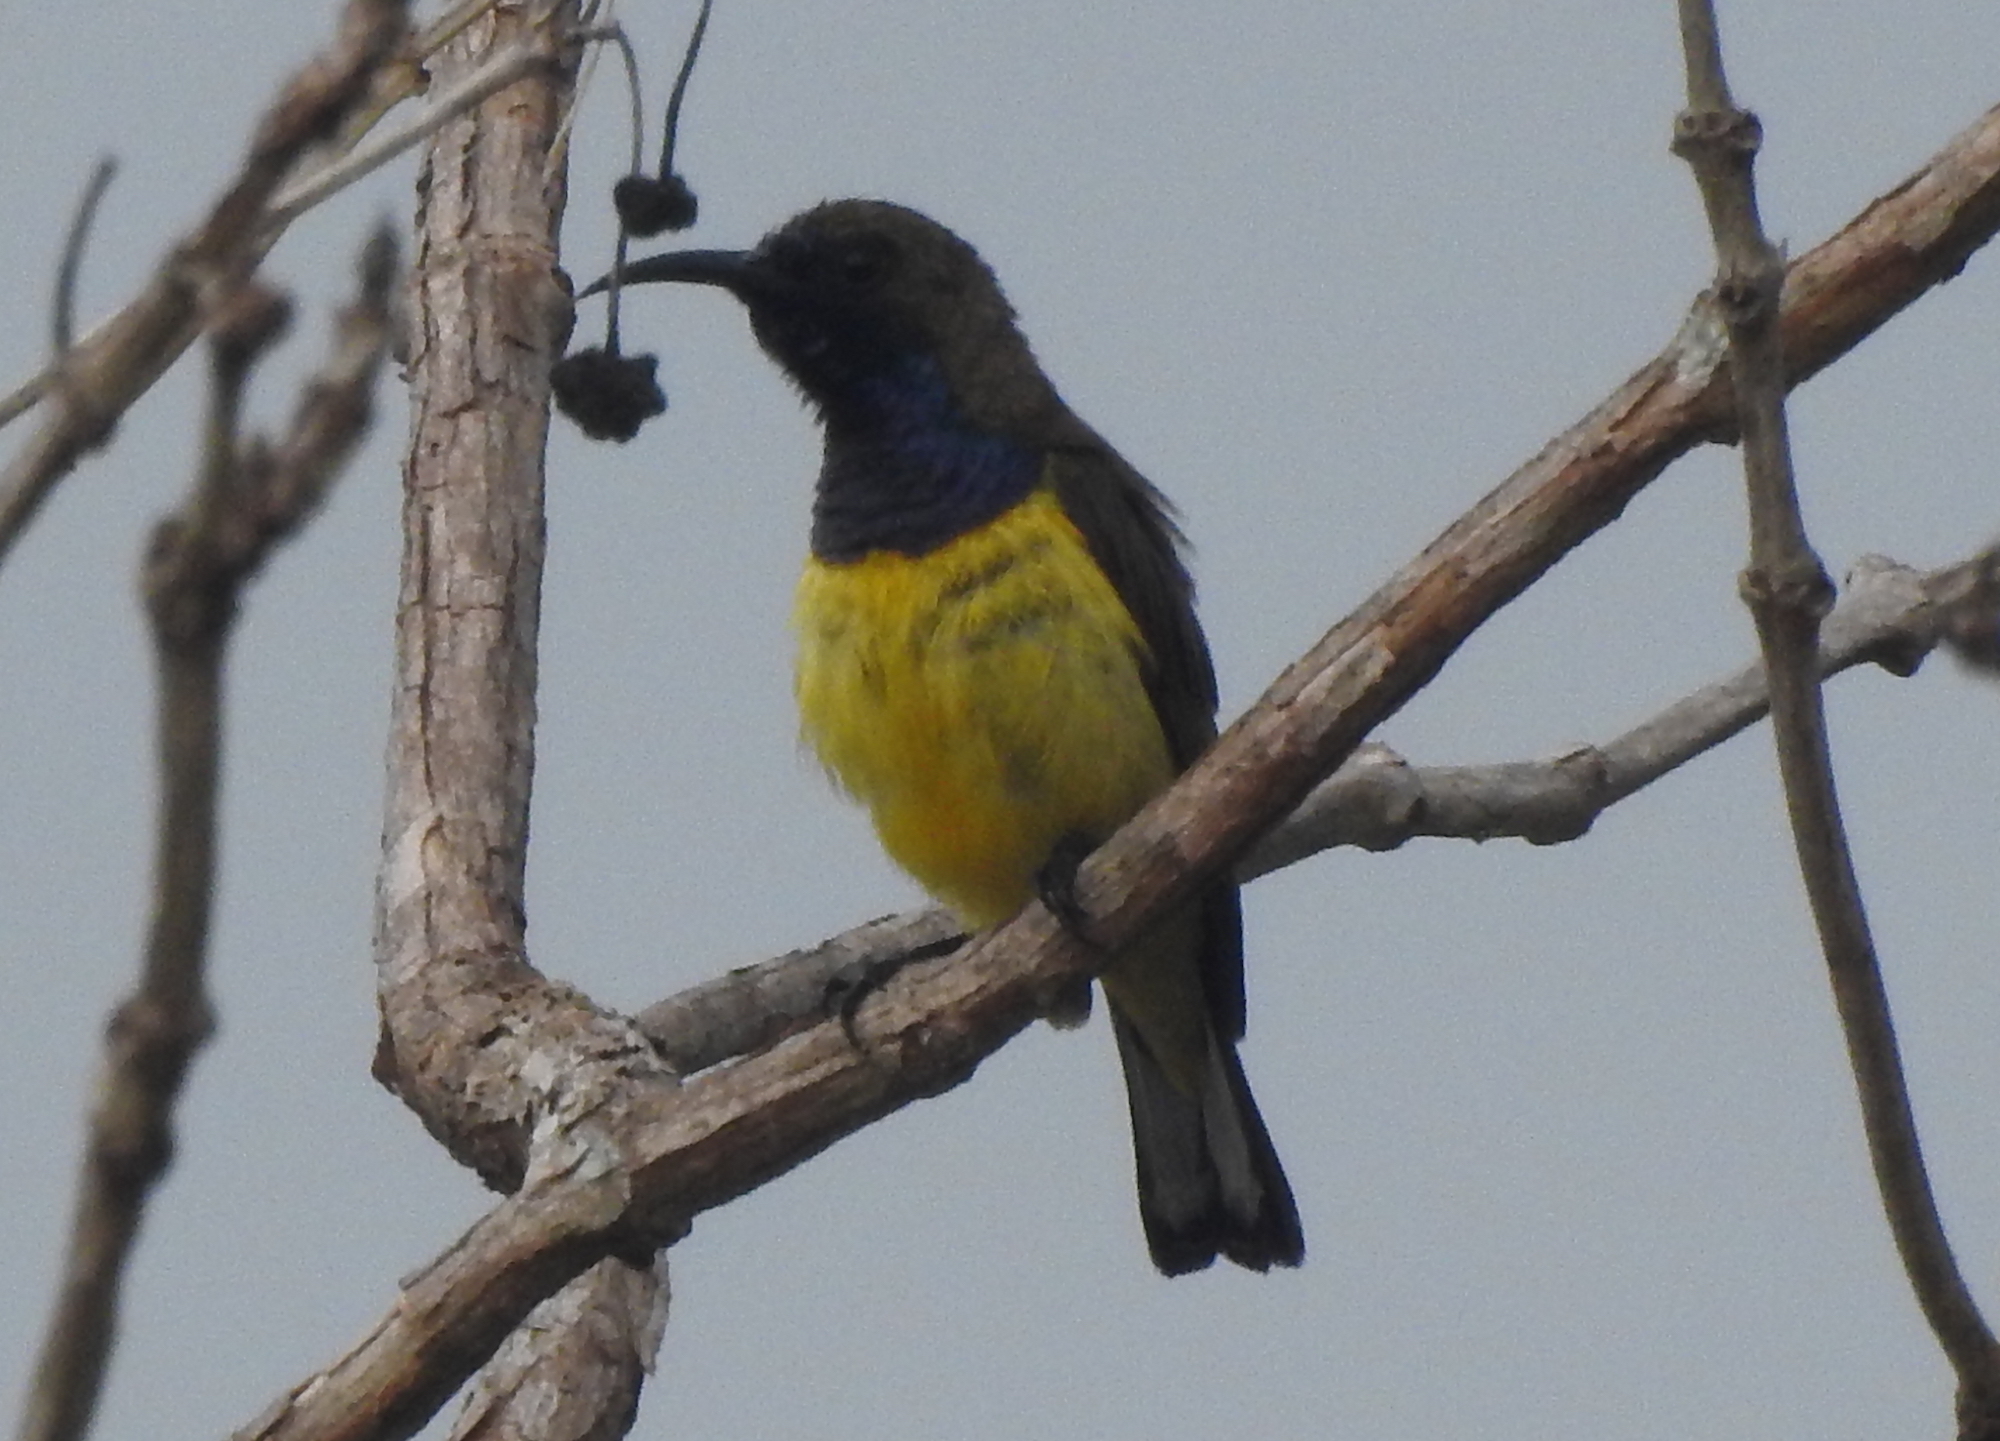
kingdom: Animalia
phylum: Chordata
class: Aves
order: Passeriformes
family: Nectariniidae
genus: Cinnyris
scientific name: Cinnyris
